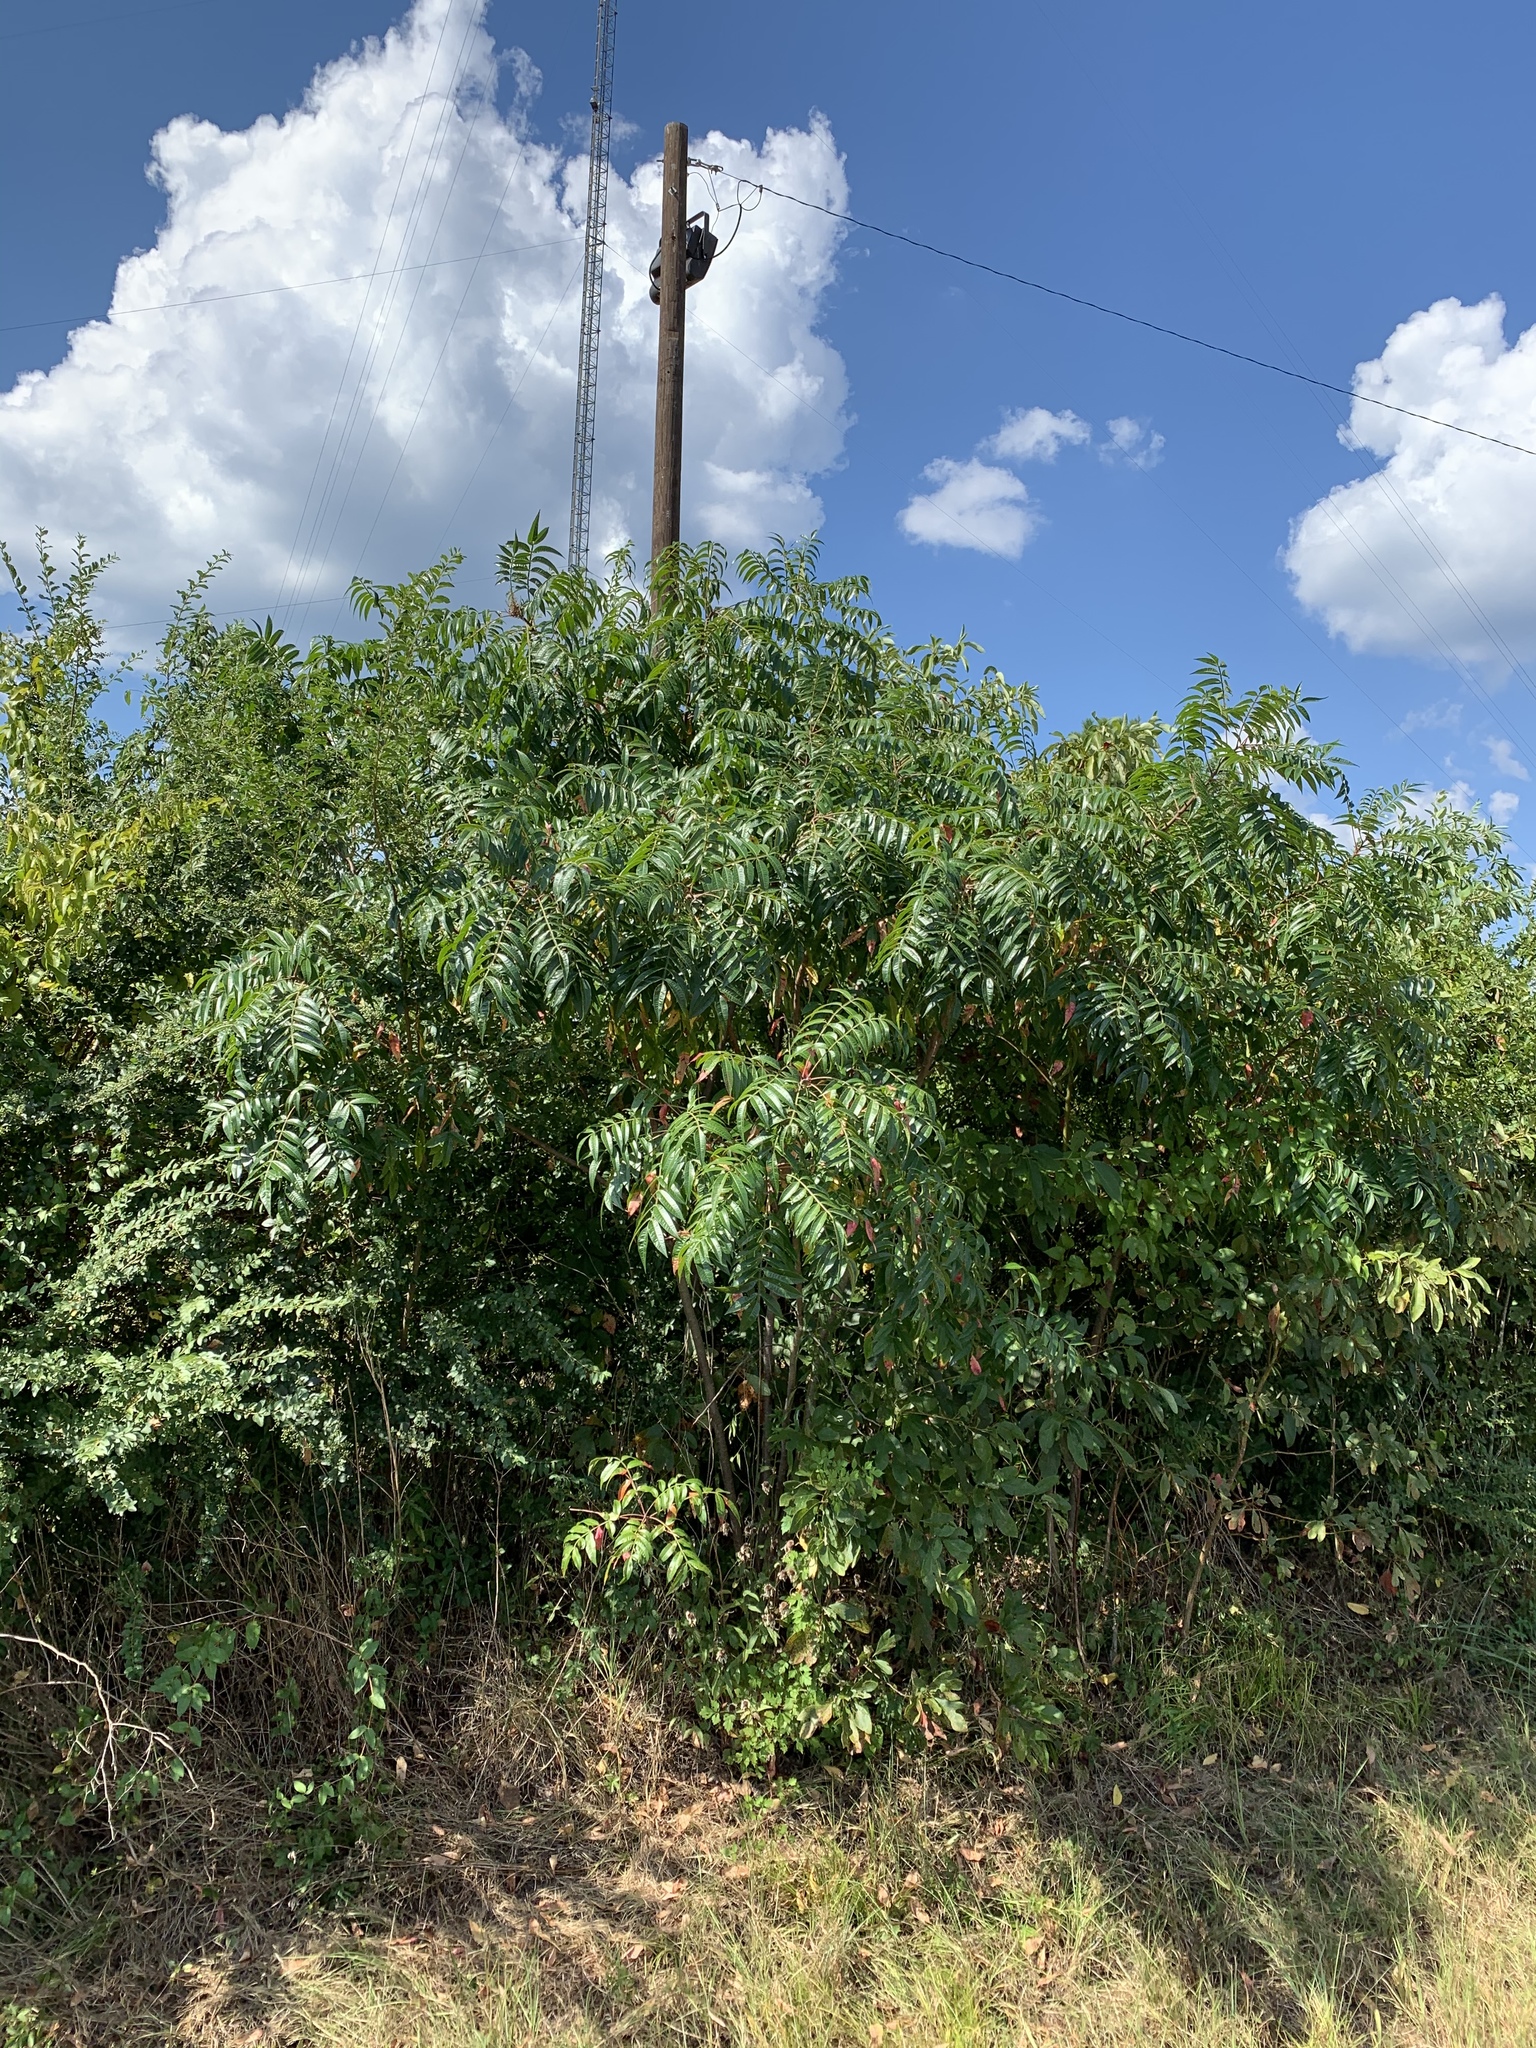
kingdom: Plantae
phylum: Tracheophyta
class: Magnoliopsida
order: Sapindales
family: Anacardiaceae
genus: Rhus
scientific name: Rhus copallina
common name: Shining sumac
